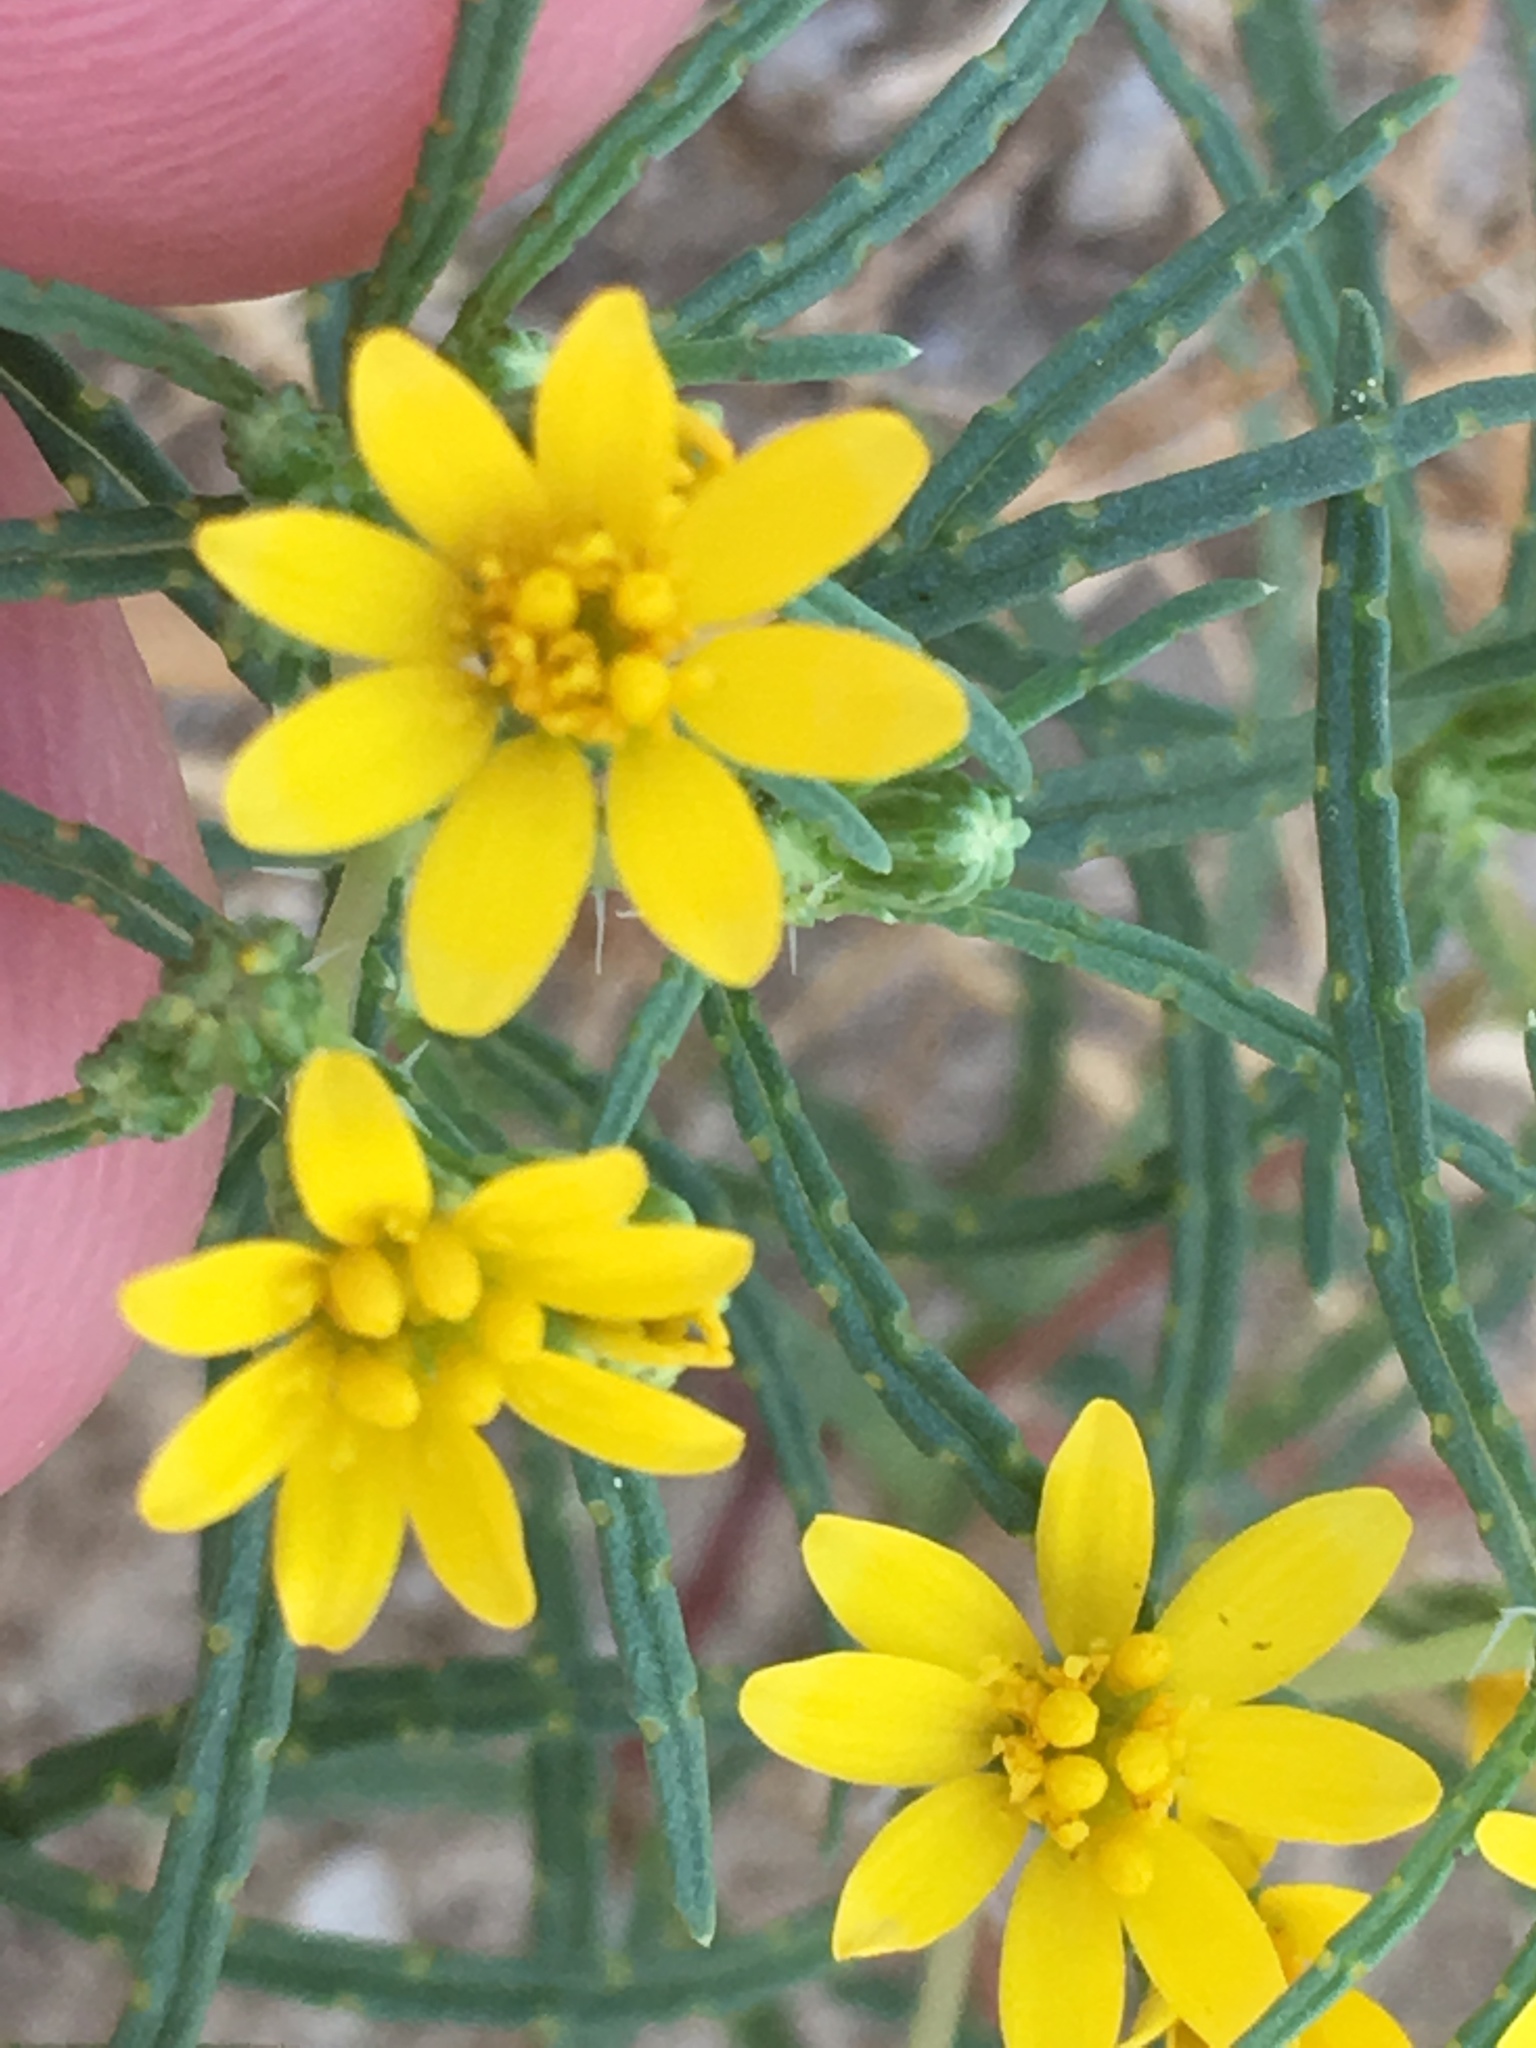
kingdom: Plantae
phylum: Tracheophyta
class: Magnoliopsida
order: Asterales
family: Asteraceae
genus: Pectis
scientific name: Pectis papposa
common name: Many-bristle chinchweed
